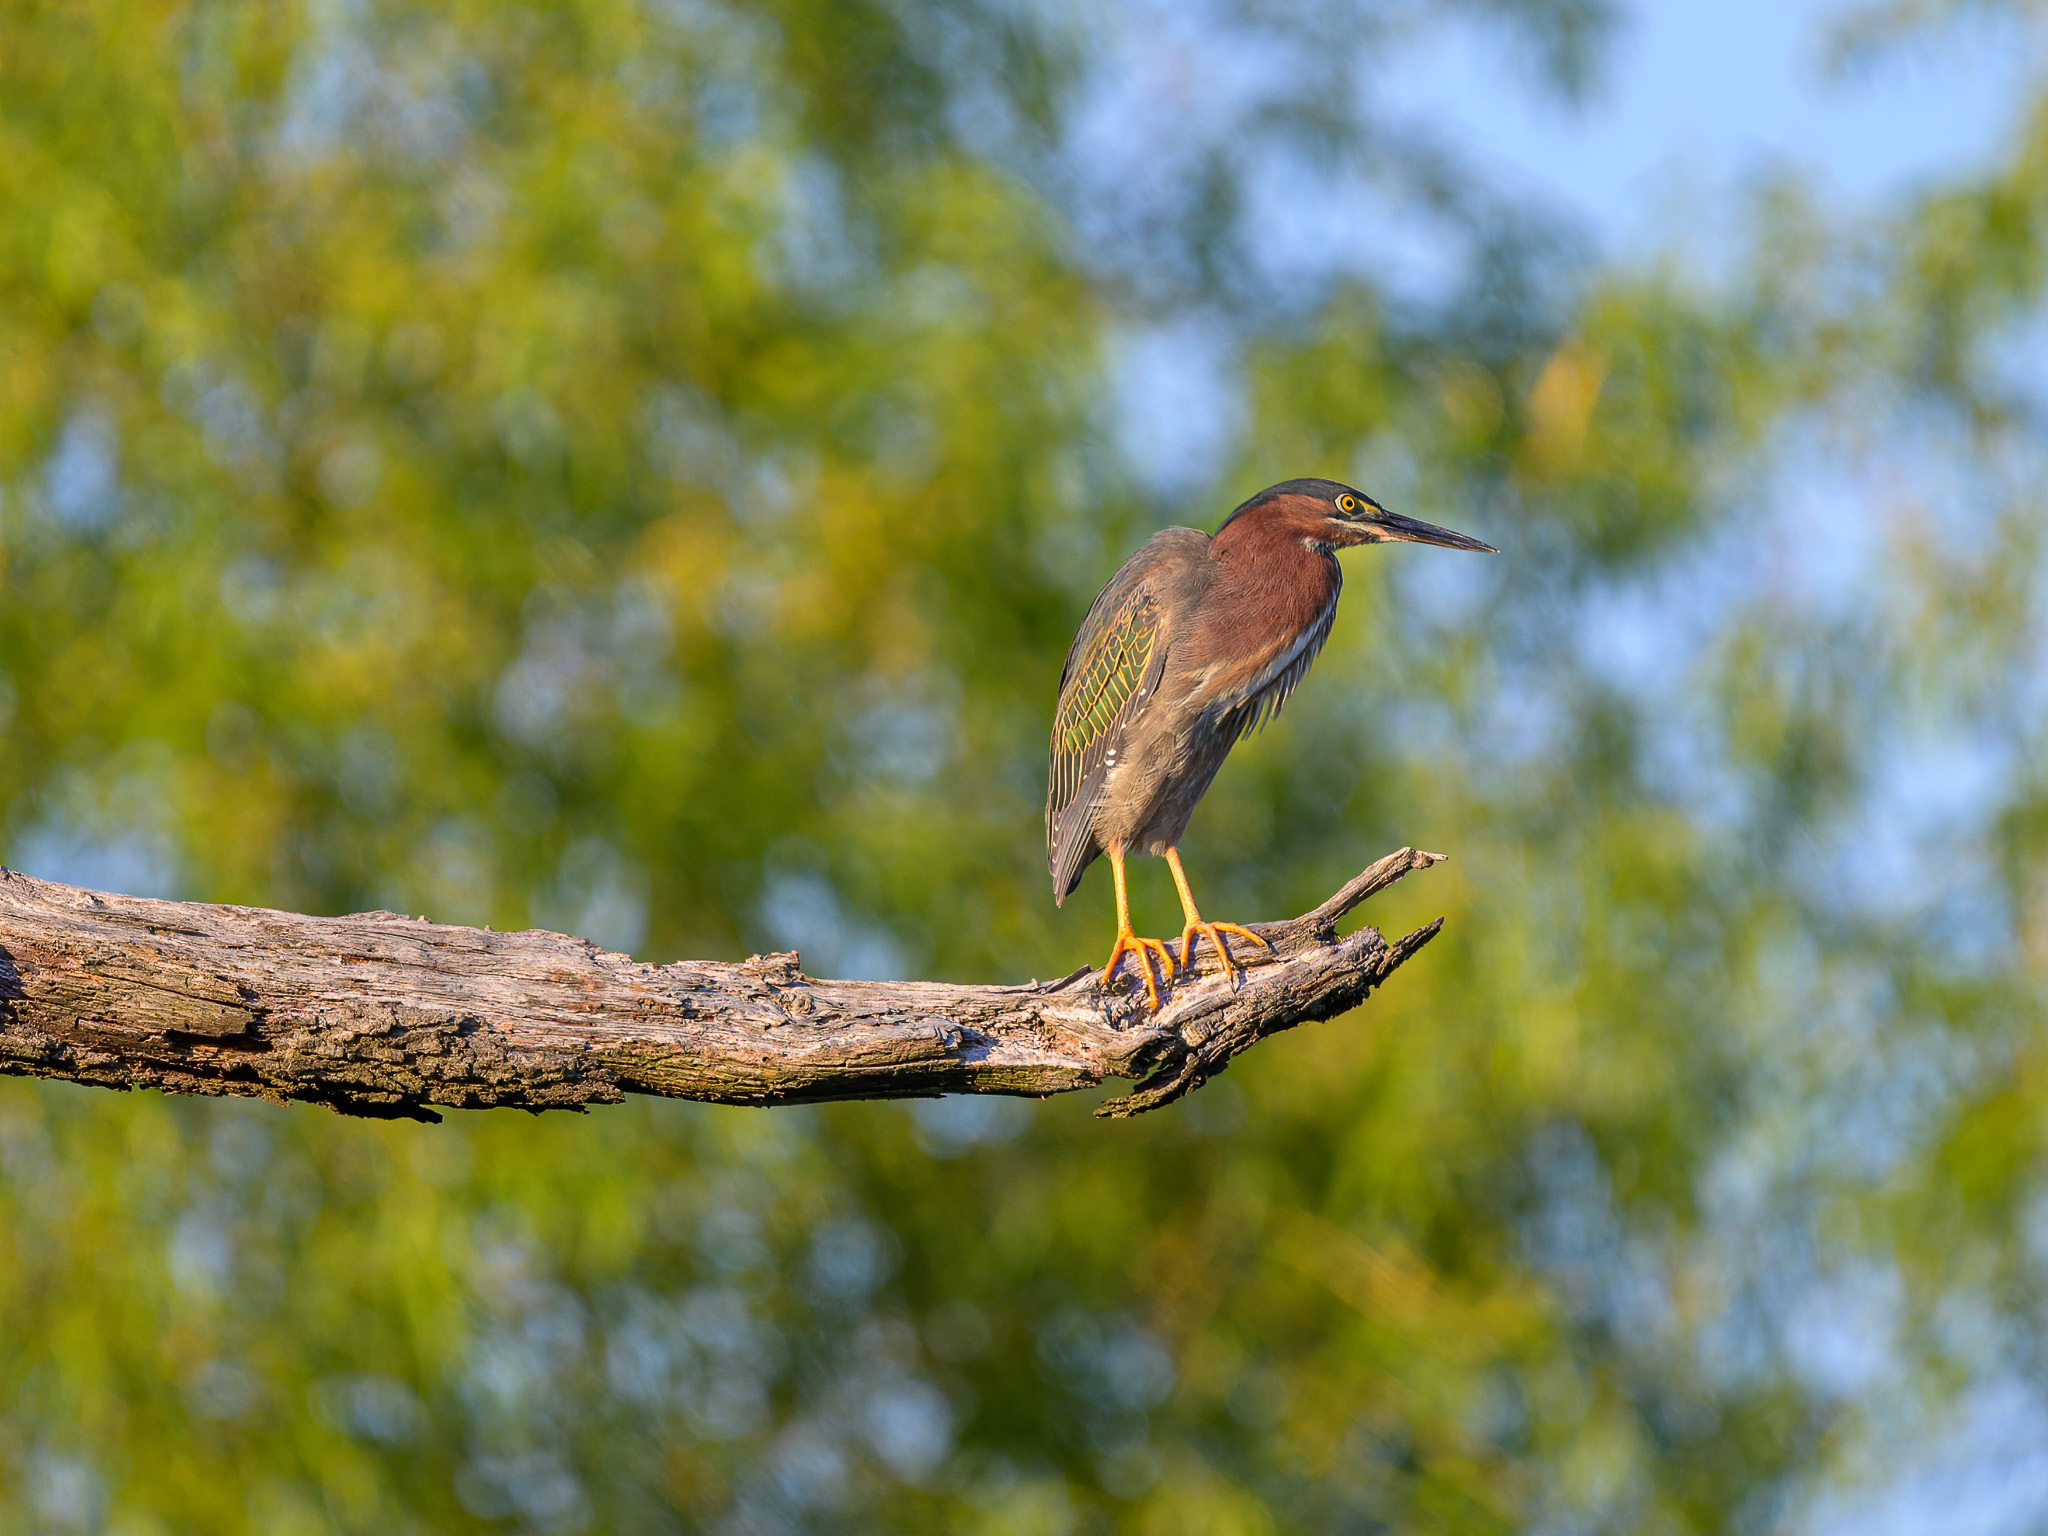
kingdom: Animalia
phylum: Chordata
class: Aves
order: Pelecaniformes
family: Ardeidae
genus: Butorides
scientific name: Butorides virescens
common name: Green heron
